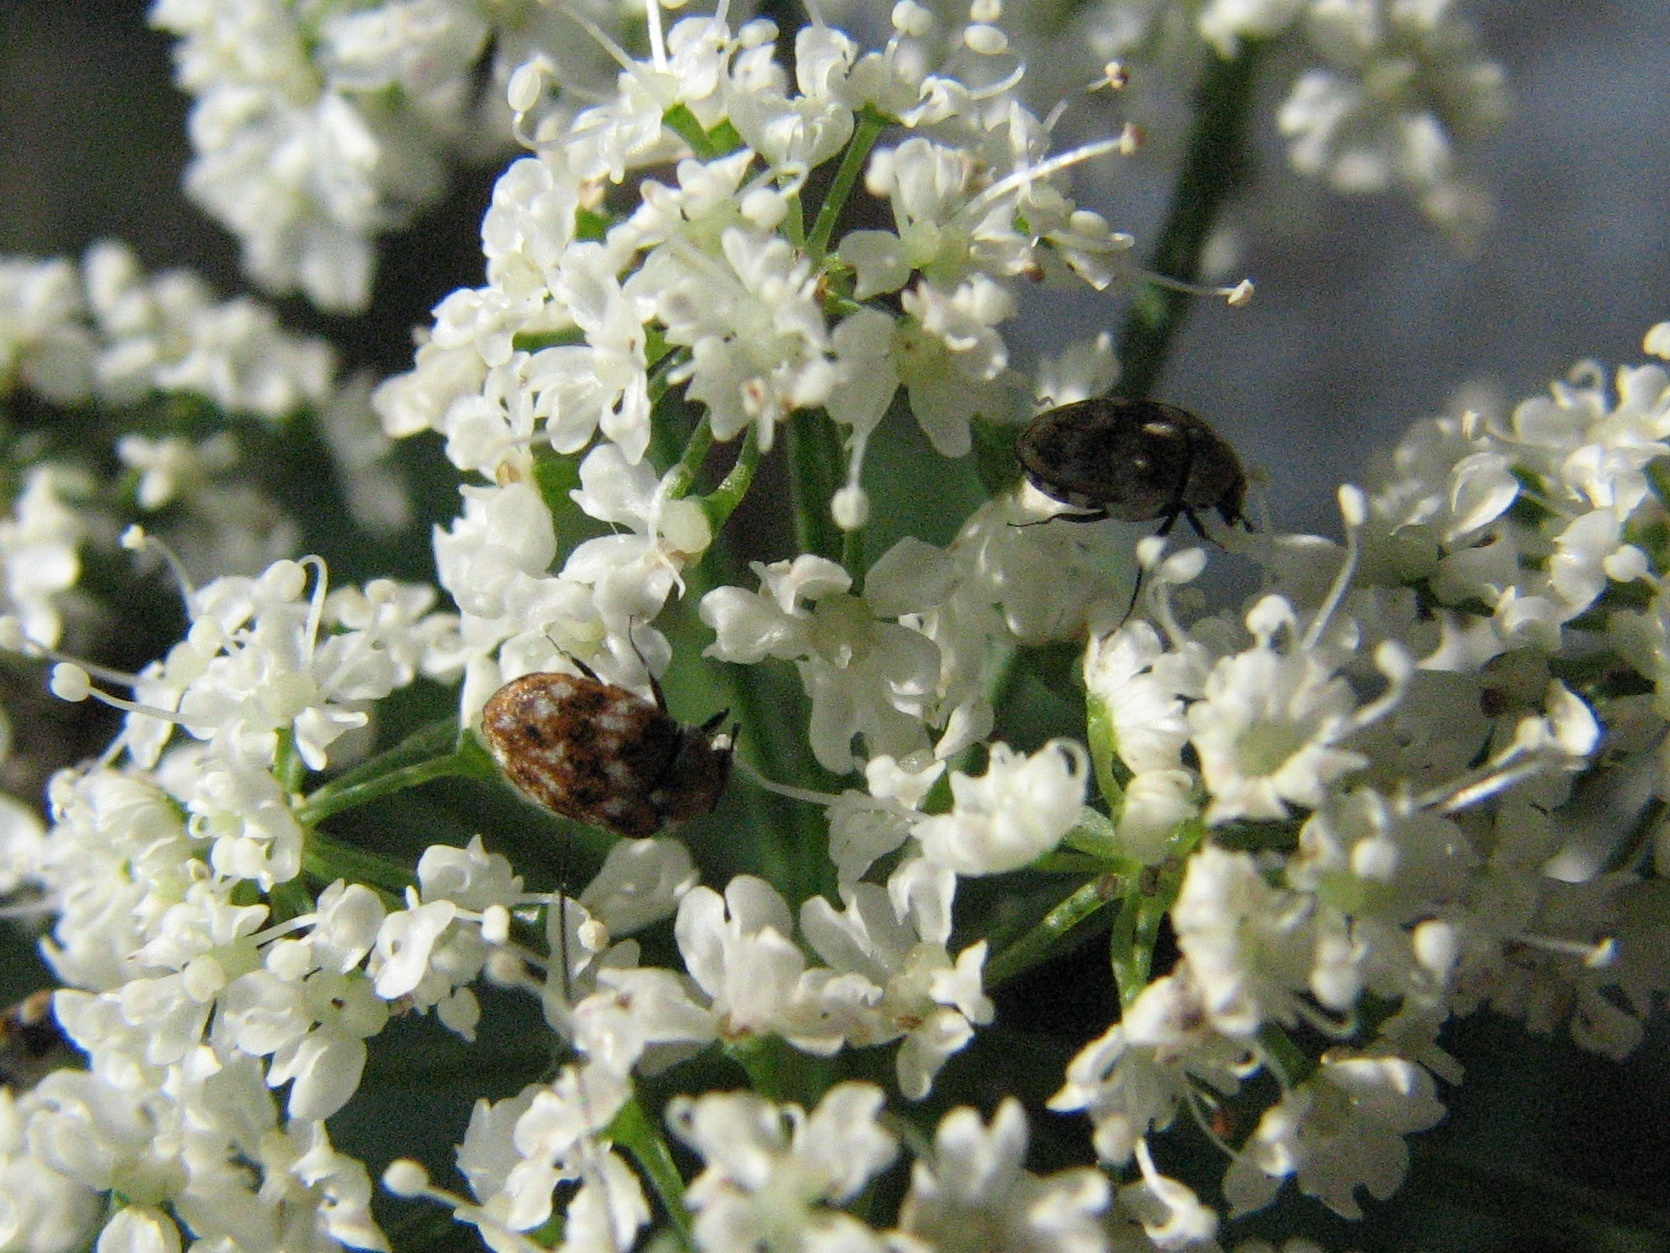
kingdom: Animalia
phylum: Arthropoda
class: Insecta
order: Coleoptera
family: Dermestidae
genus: Anthrenus
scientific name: Anthrenus verbasci
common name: Varied carpet beetle
